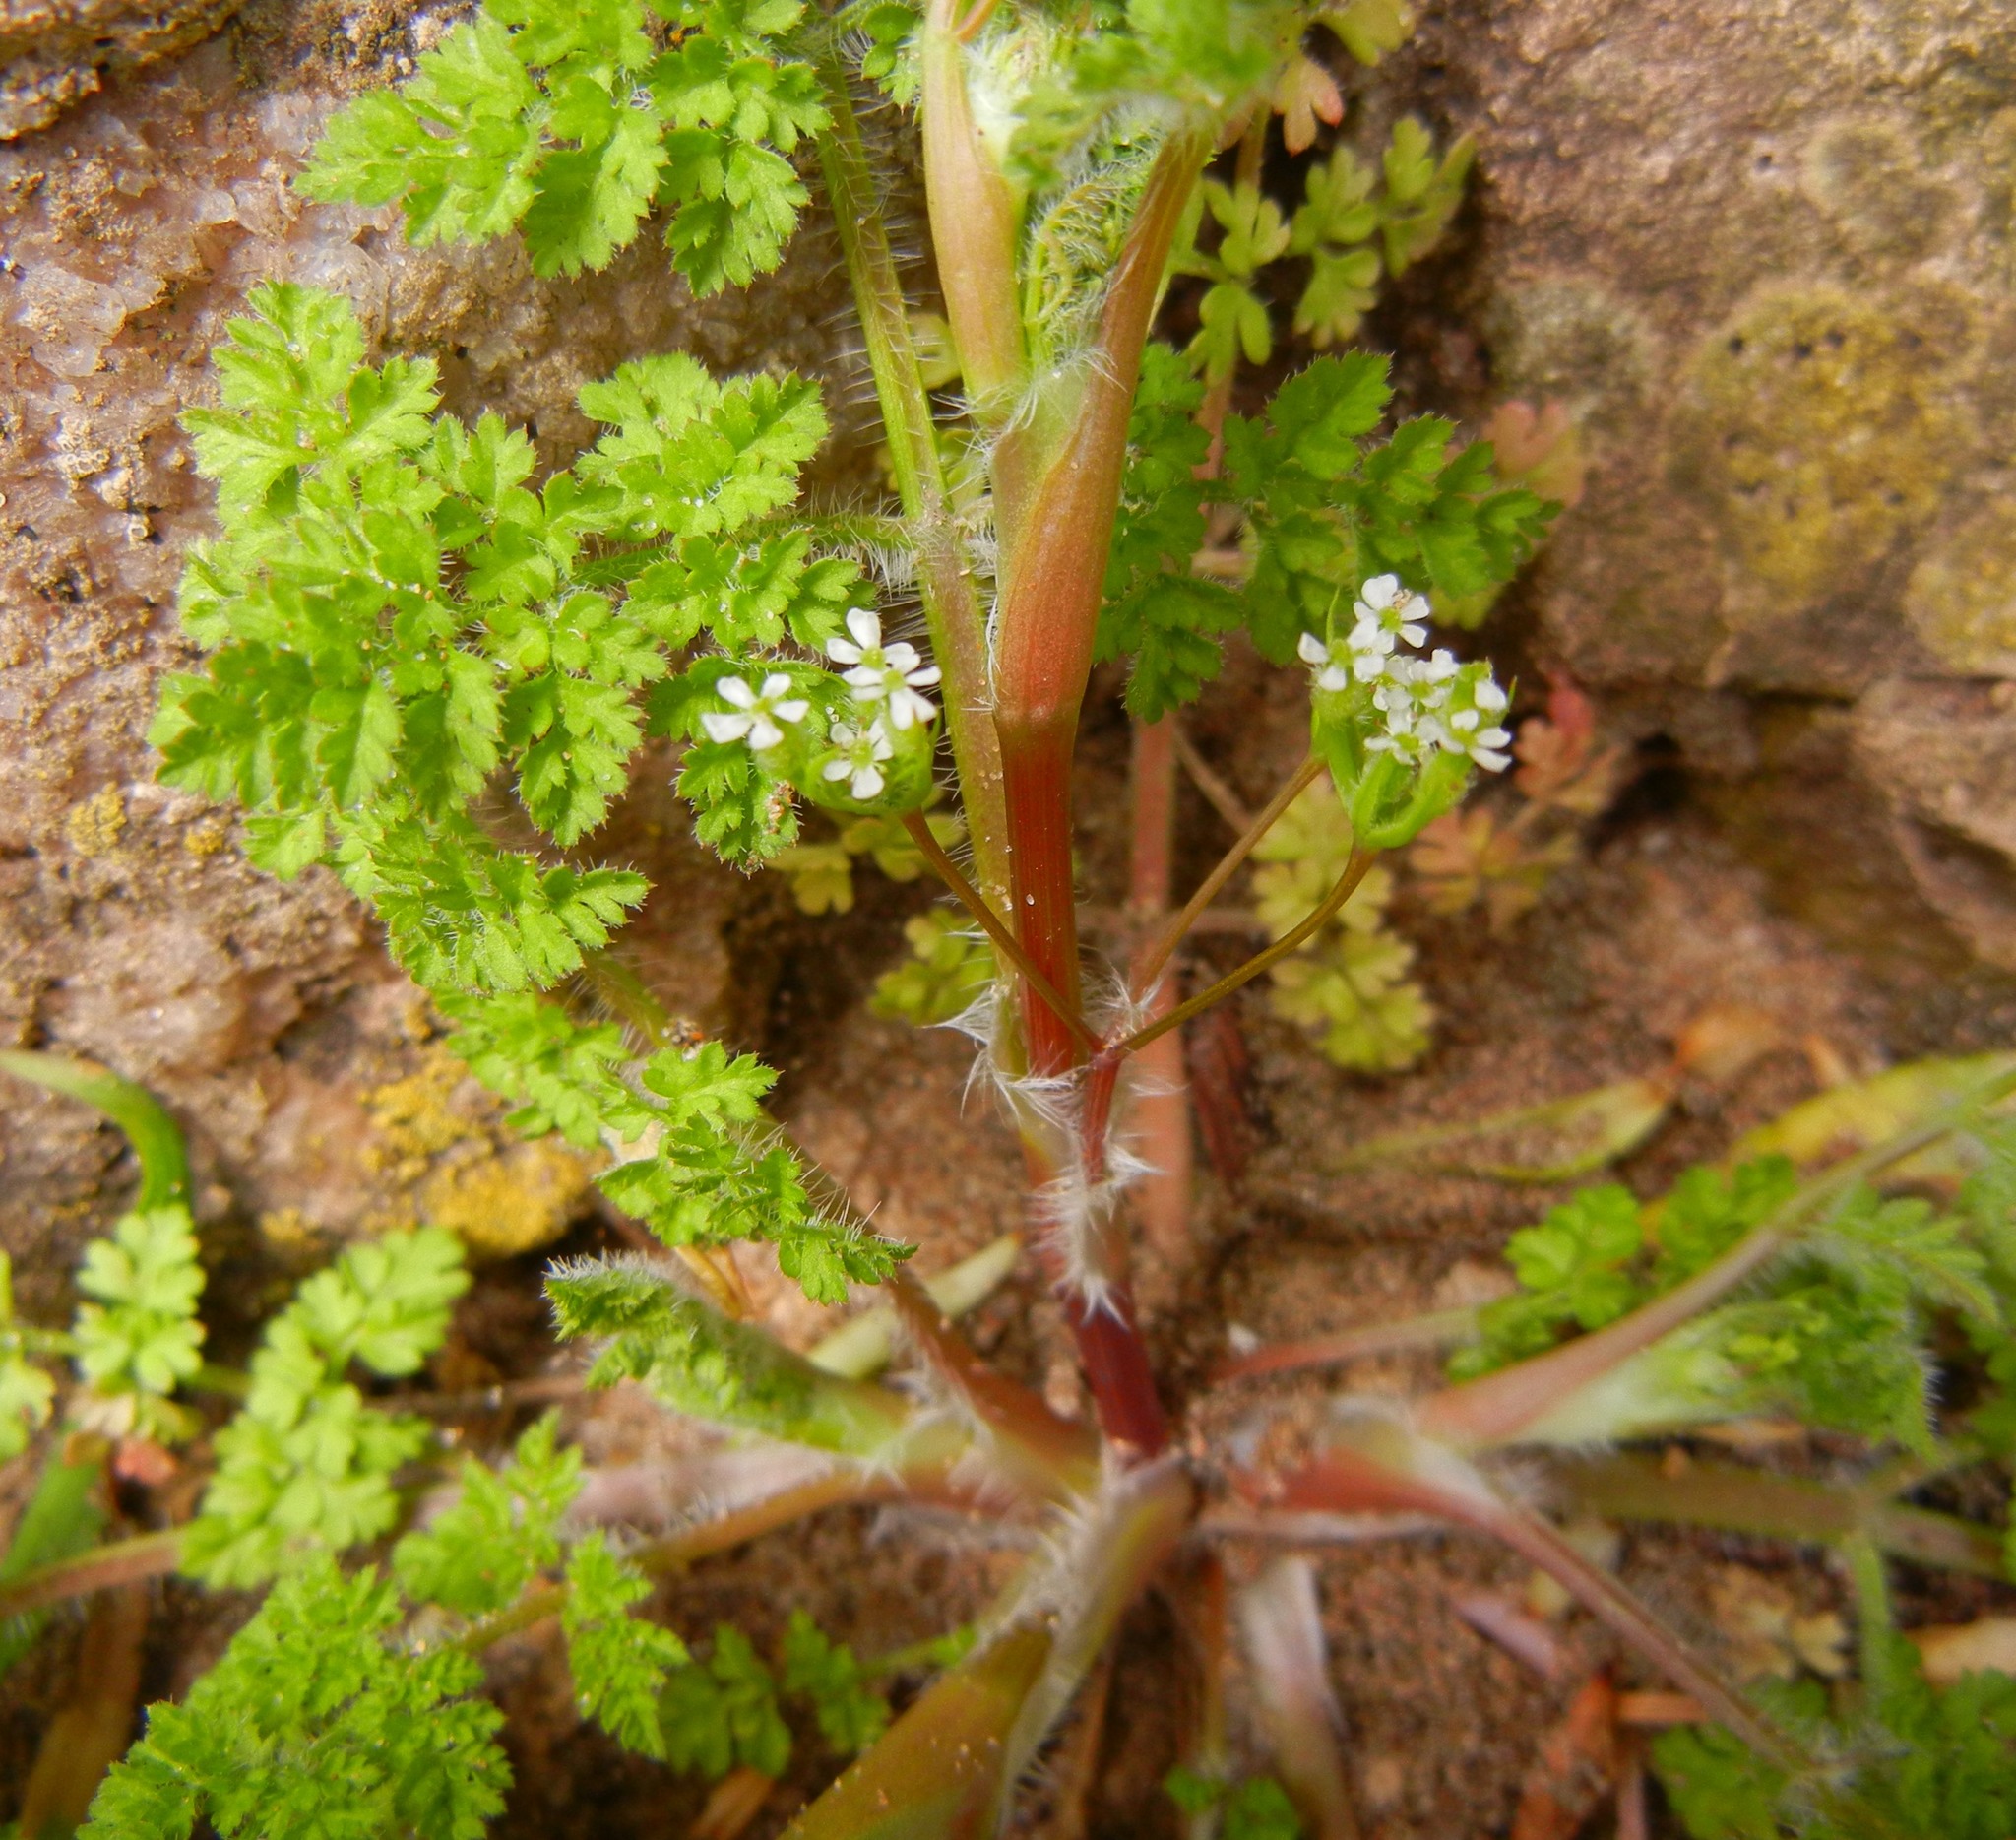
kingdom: Plantae
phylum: Tracheophyta
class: Magnoliopsida
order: Apiales
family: Apiaceae
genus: Anthriscus
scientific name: Anthriscus caucalis
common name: Bur chervil
